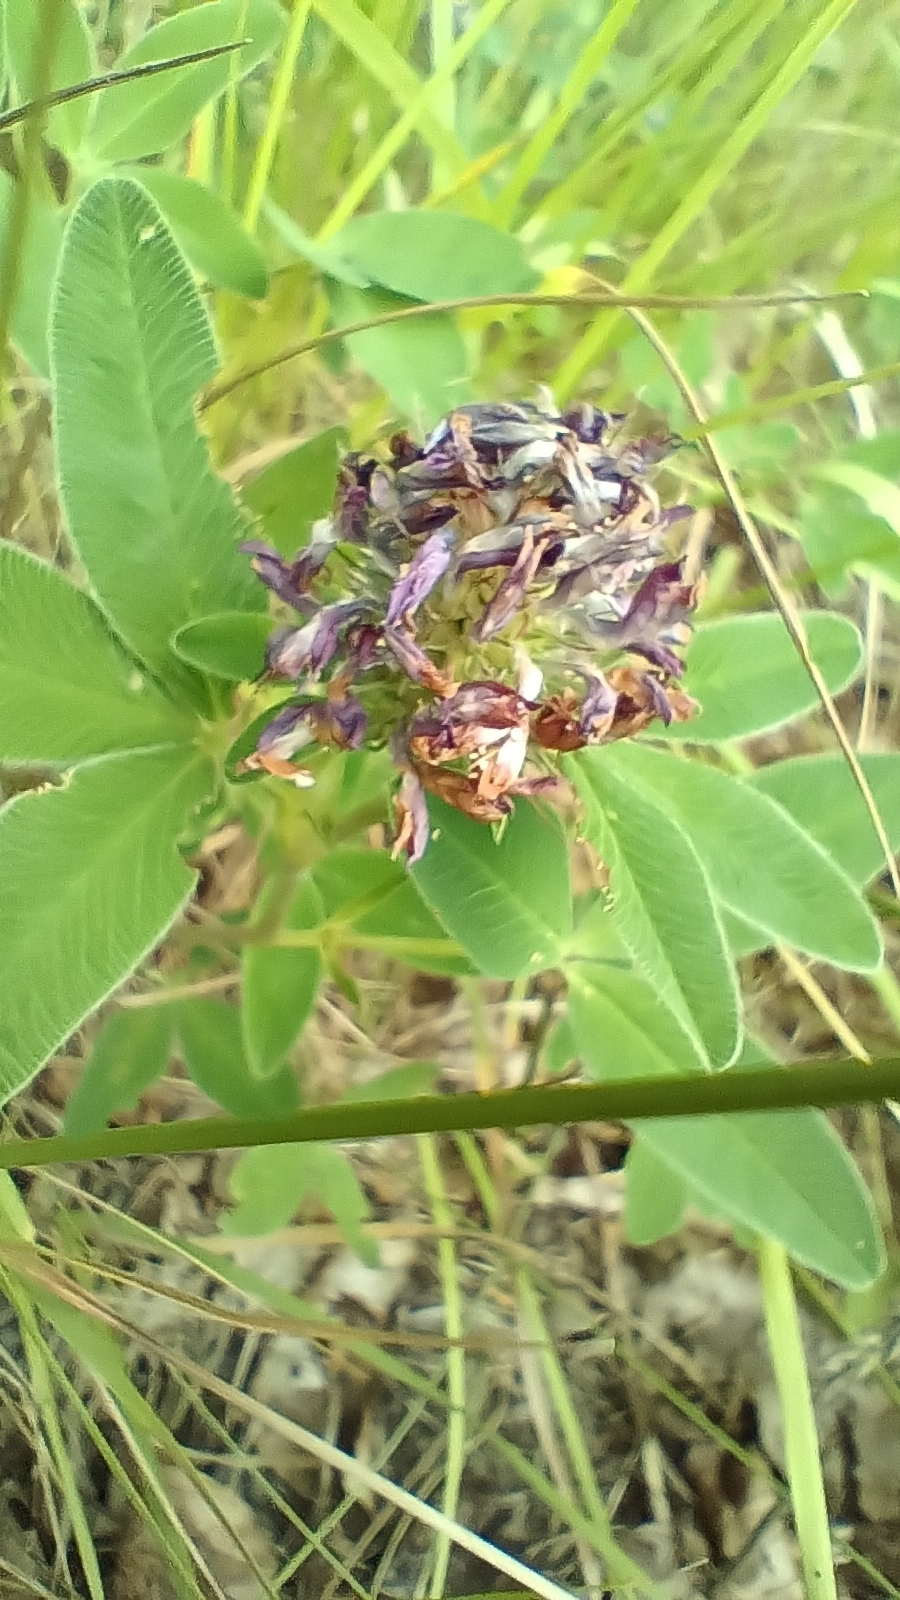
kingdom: Plantae
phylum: Tracheophyta
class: Magnoliopsida
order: Fabales
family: Fabaceae
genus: Trifolium
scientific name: Trifolium medium
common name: Zigzag clover
